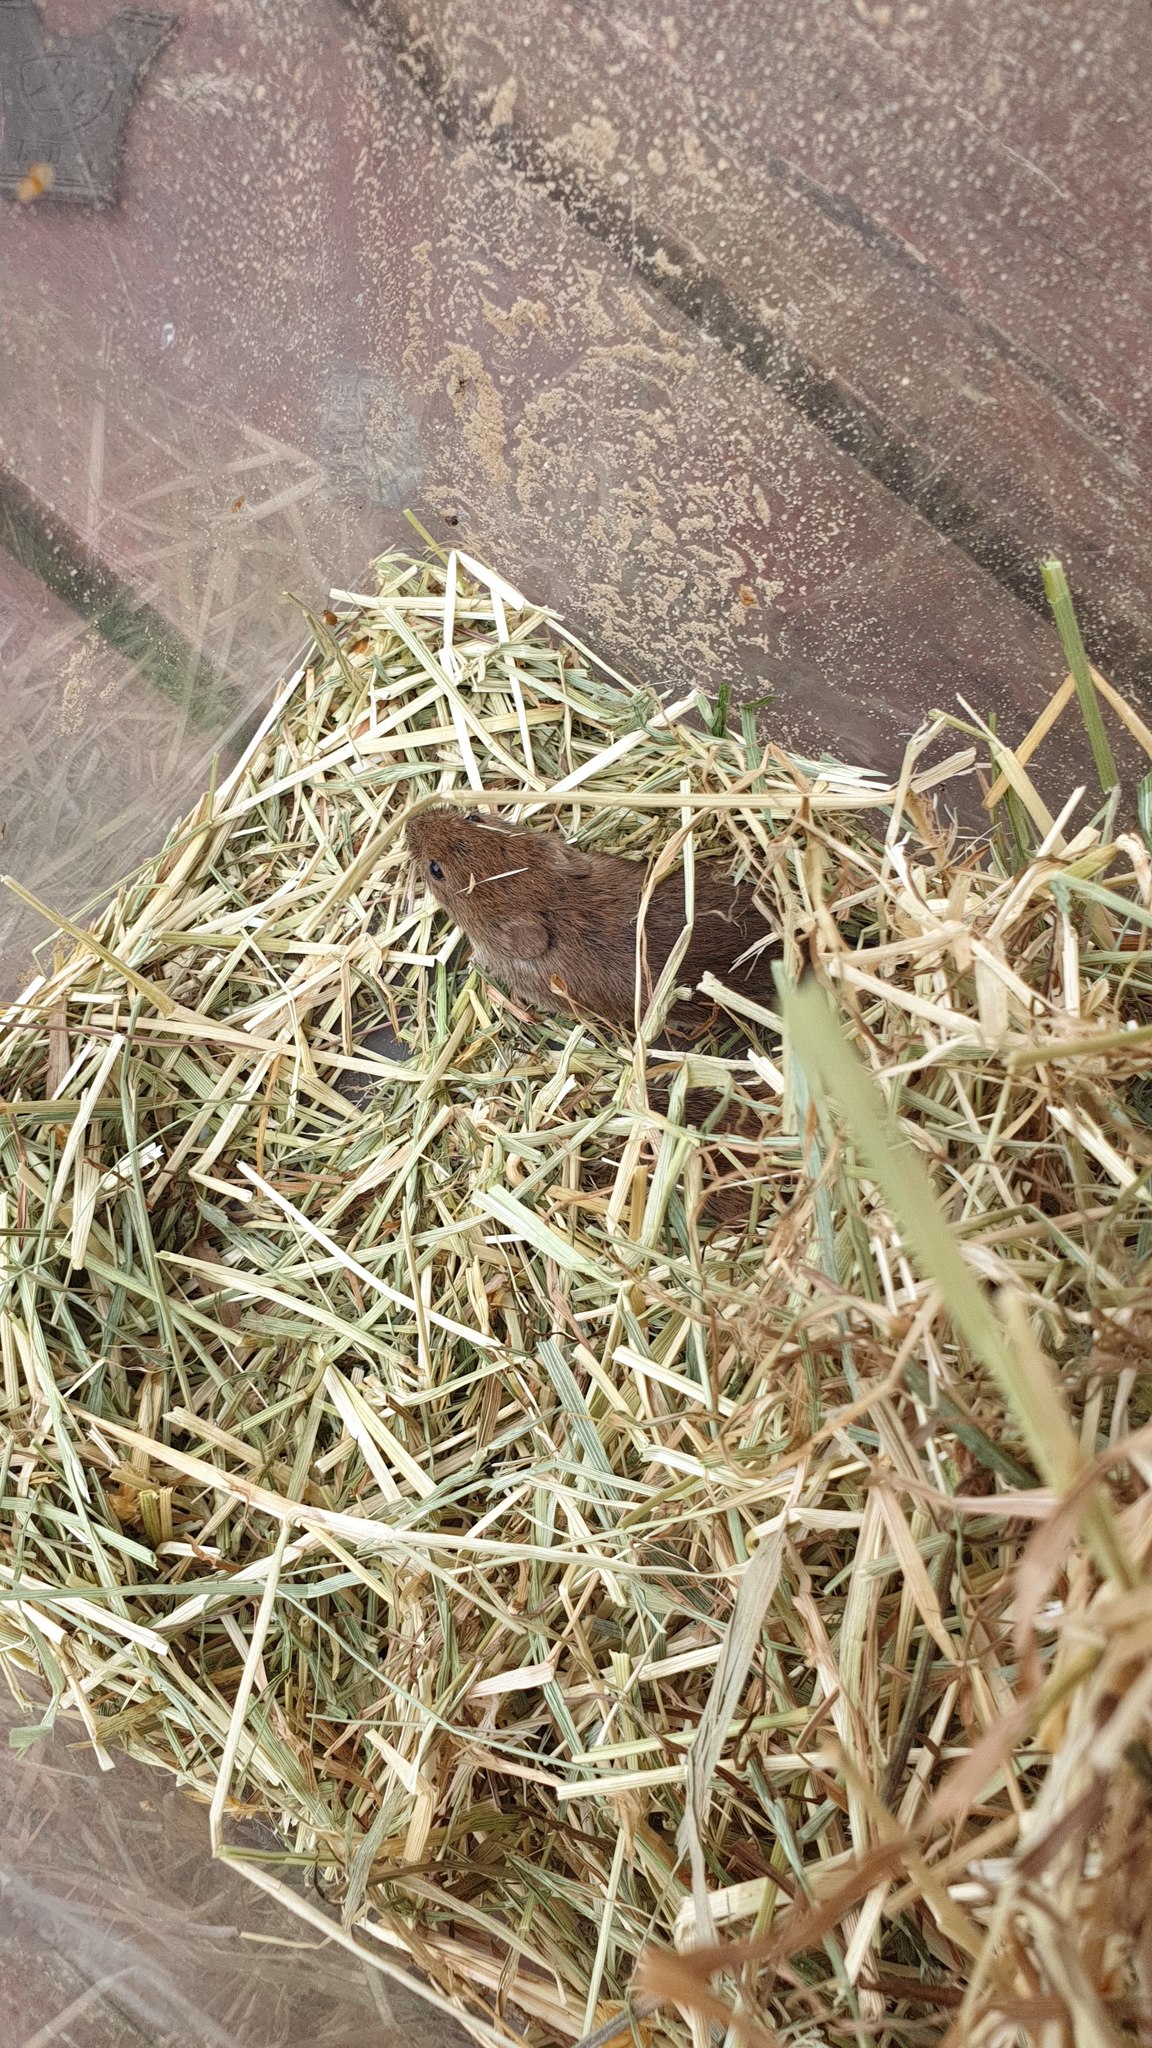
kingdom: Animalia
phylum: Chordata
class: Mammalia
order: Rodentia
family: Cricetidae
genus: Myodes
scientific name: Myodes glareolus
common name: Bank vole
